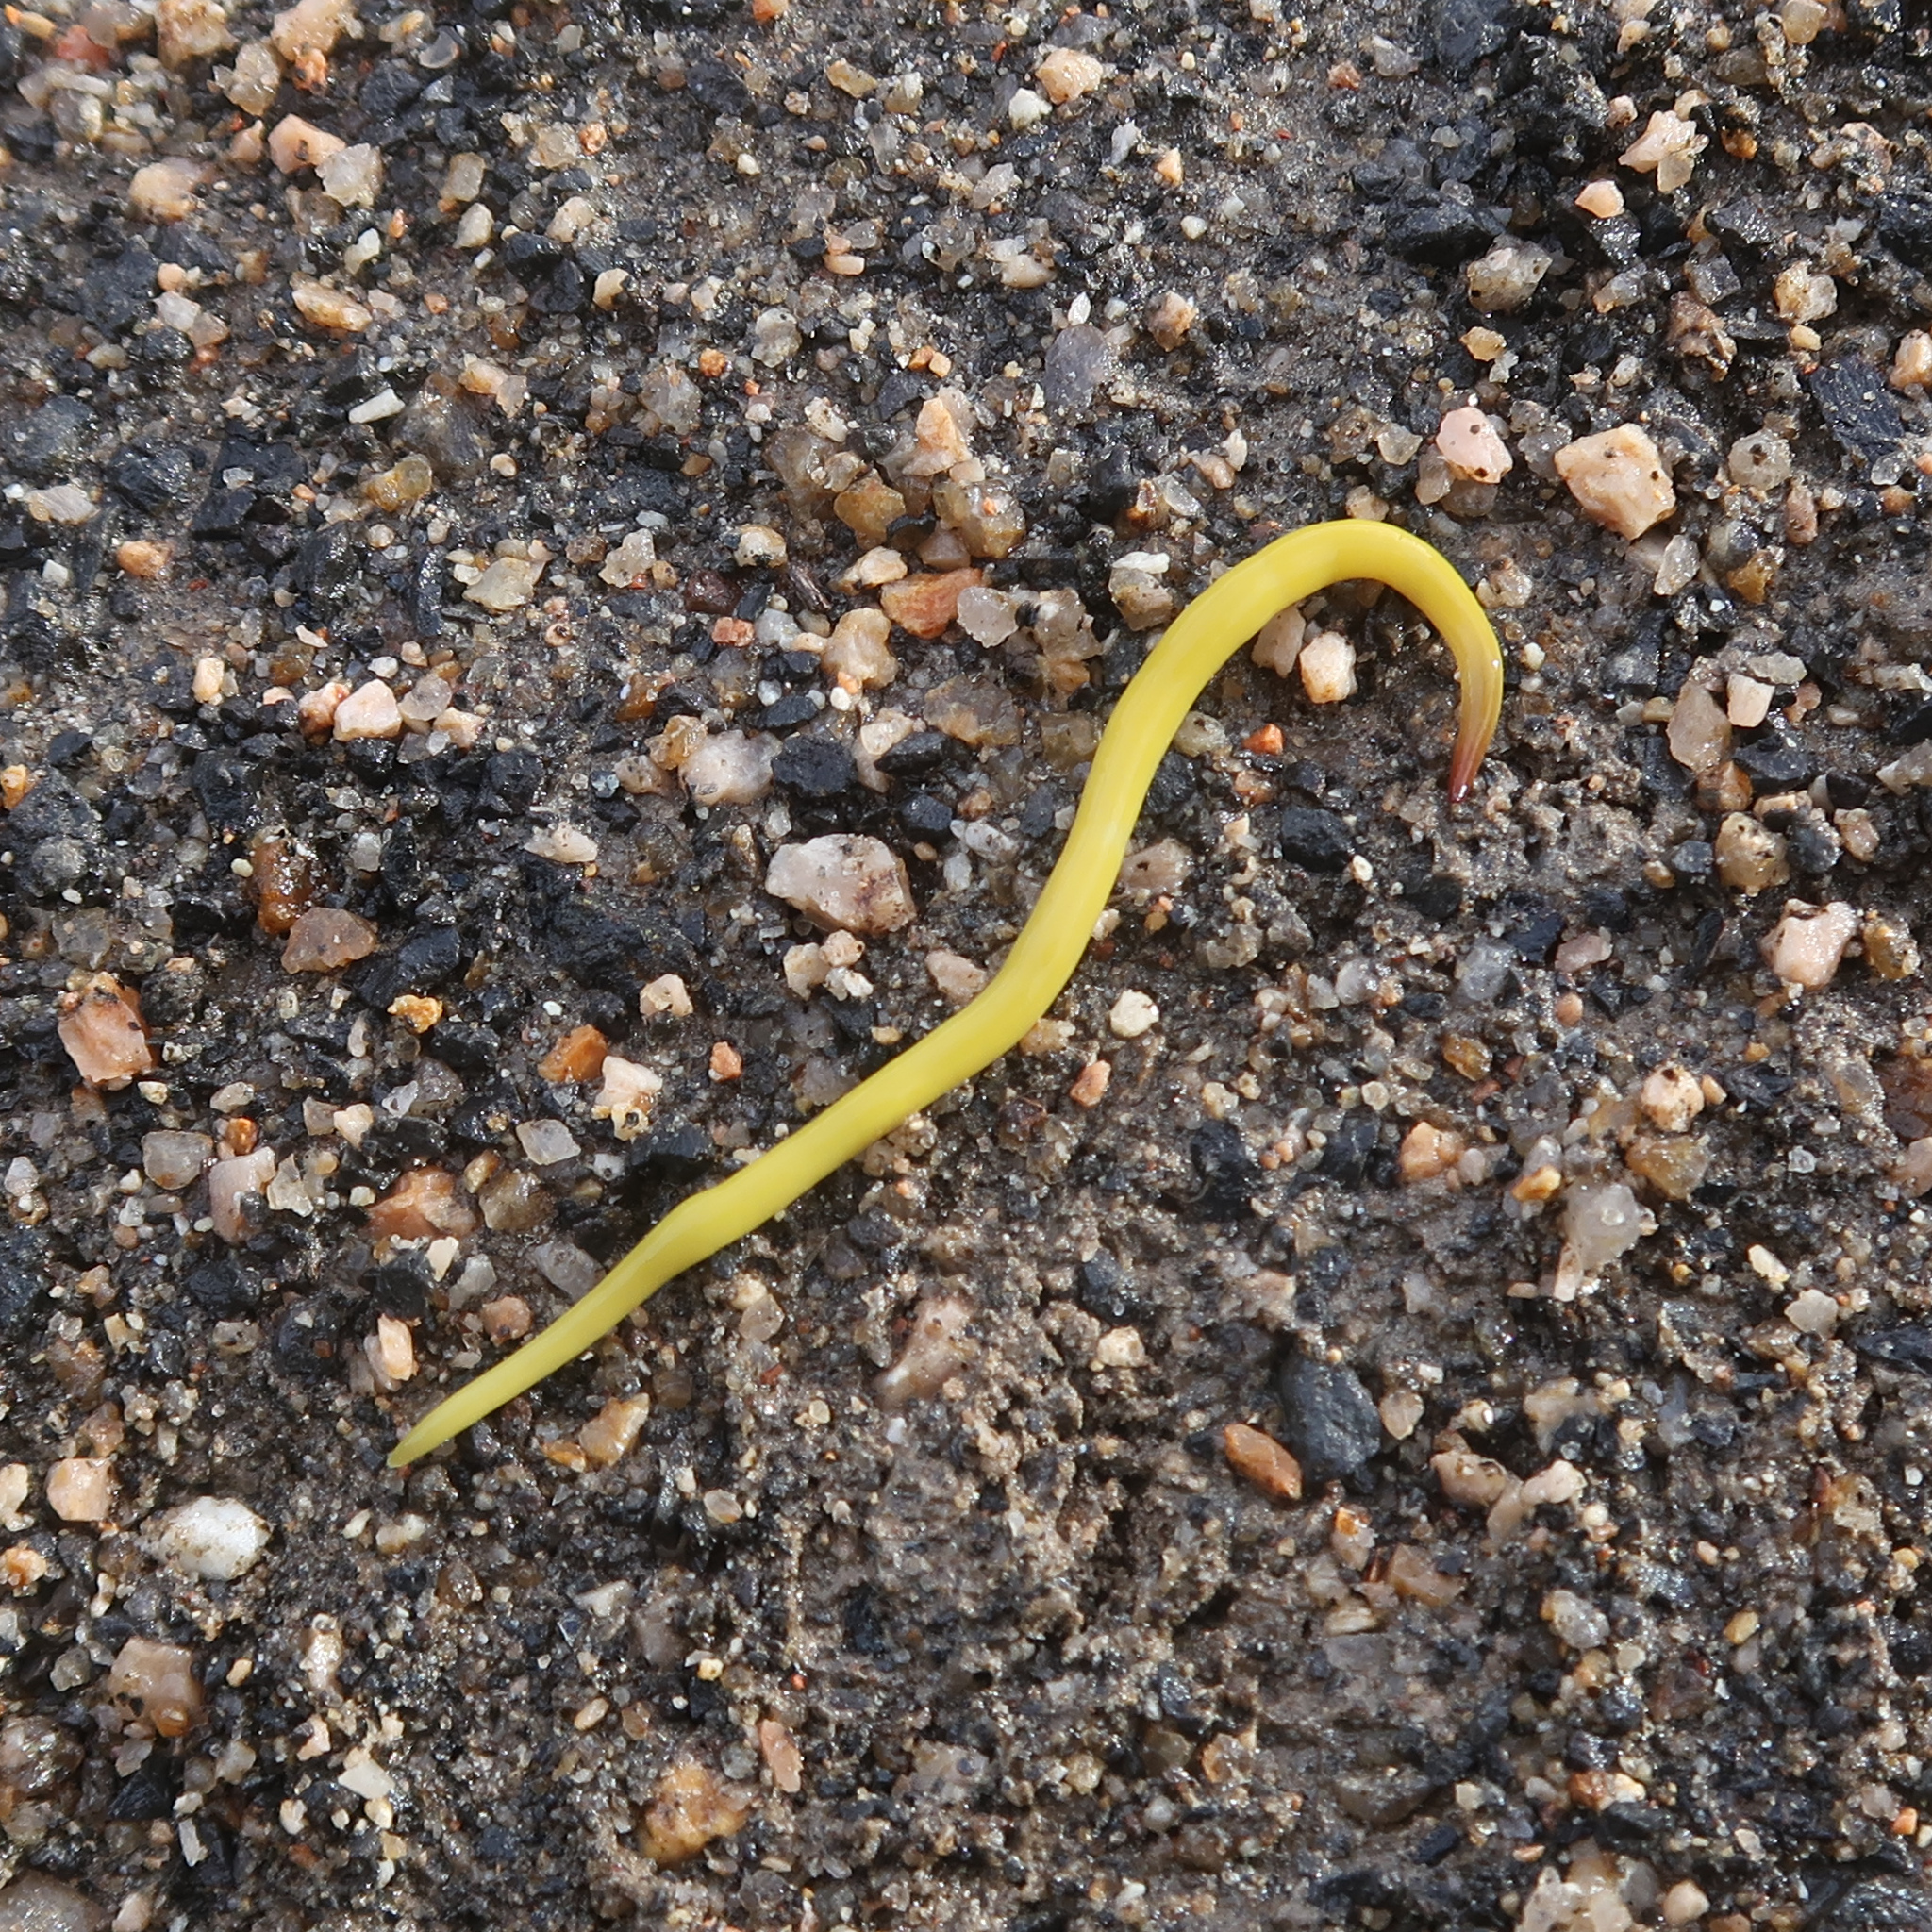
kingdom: Animalia
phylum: Platyhelminthes
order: Tricladida
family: Geoplanidae
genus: Fletchamia
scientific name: Fletchamia sugdeni
